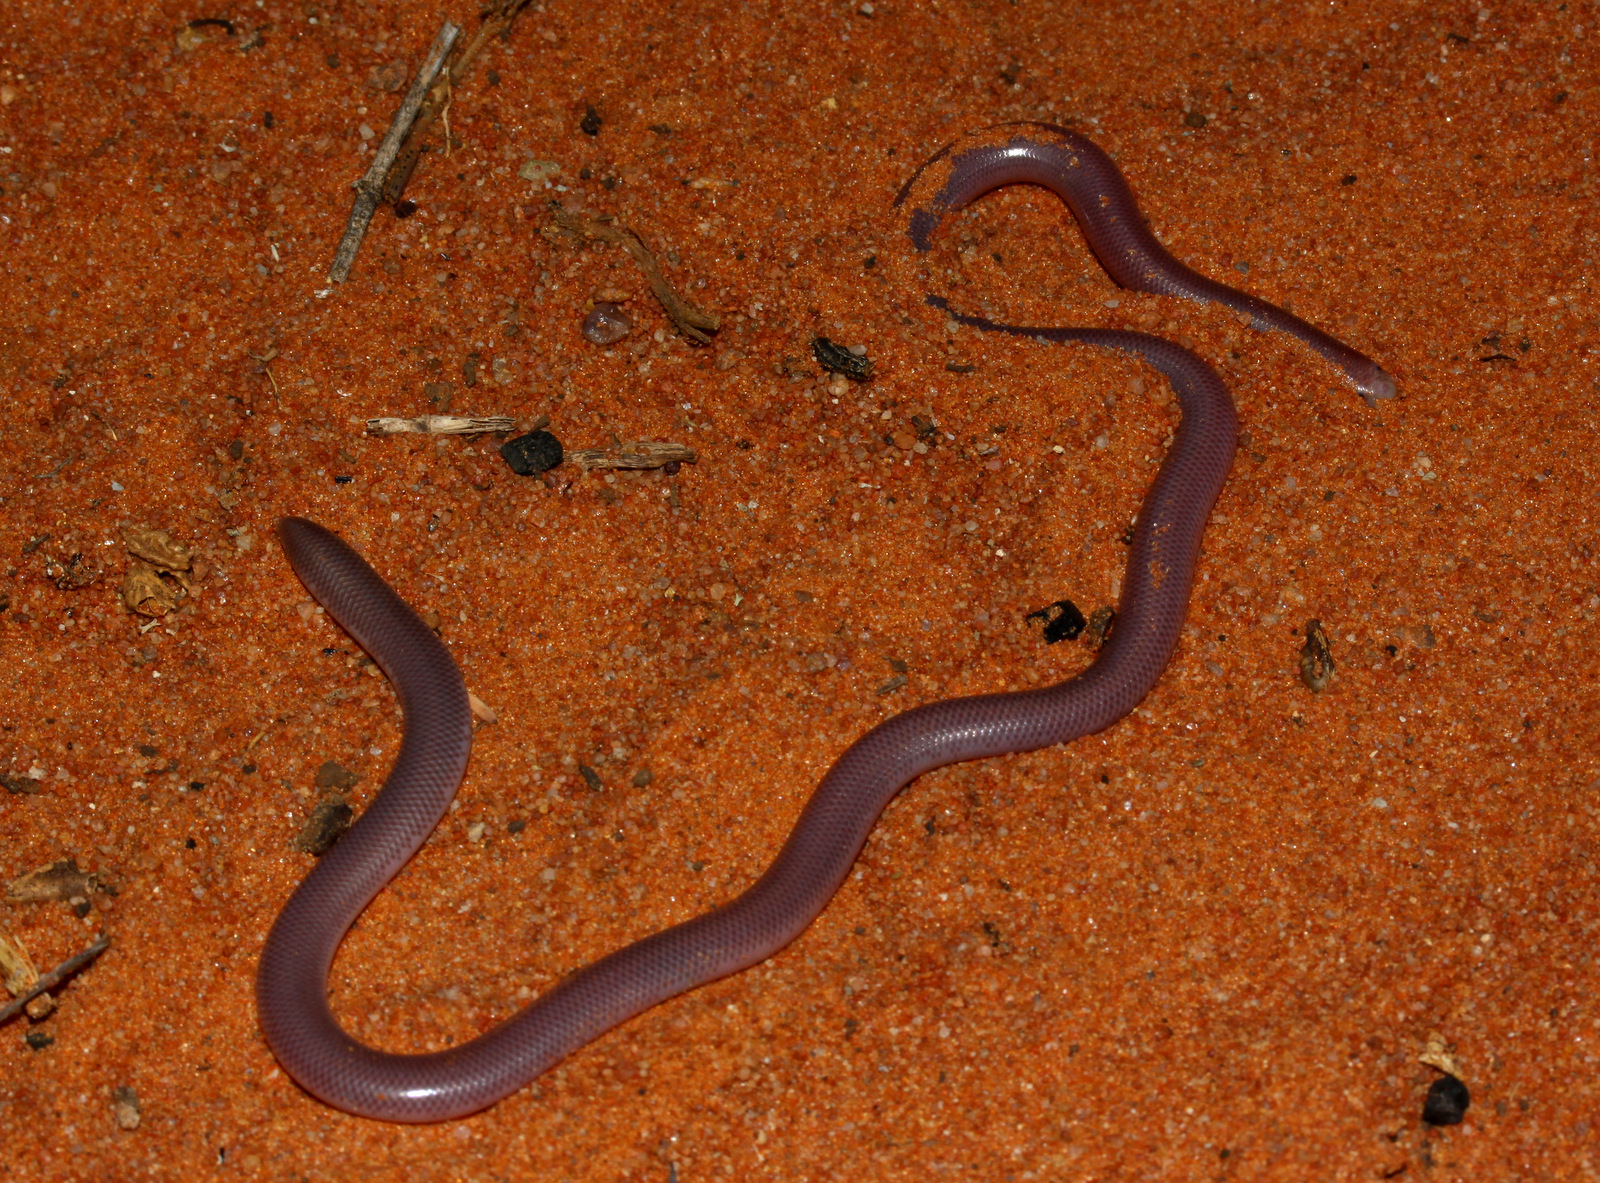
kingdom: Animalia
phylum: Chordata
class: Squamata
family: Typhlopidae
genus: Rhinotyphlops
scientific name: Rhinotyphlops lalandei
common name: Delalande's beaked blind snake
